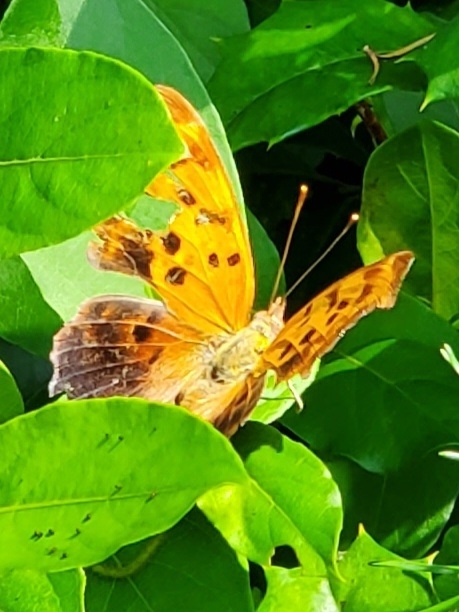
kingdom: Animalia
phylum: Arthropoda
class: Insecta
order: Lepidoptera
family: Nymphalidae
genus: Polygonia
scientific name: Polygonia interrogationis
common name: Question mark
